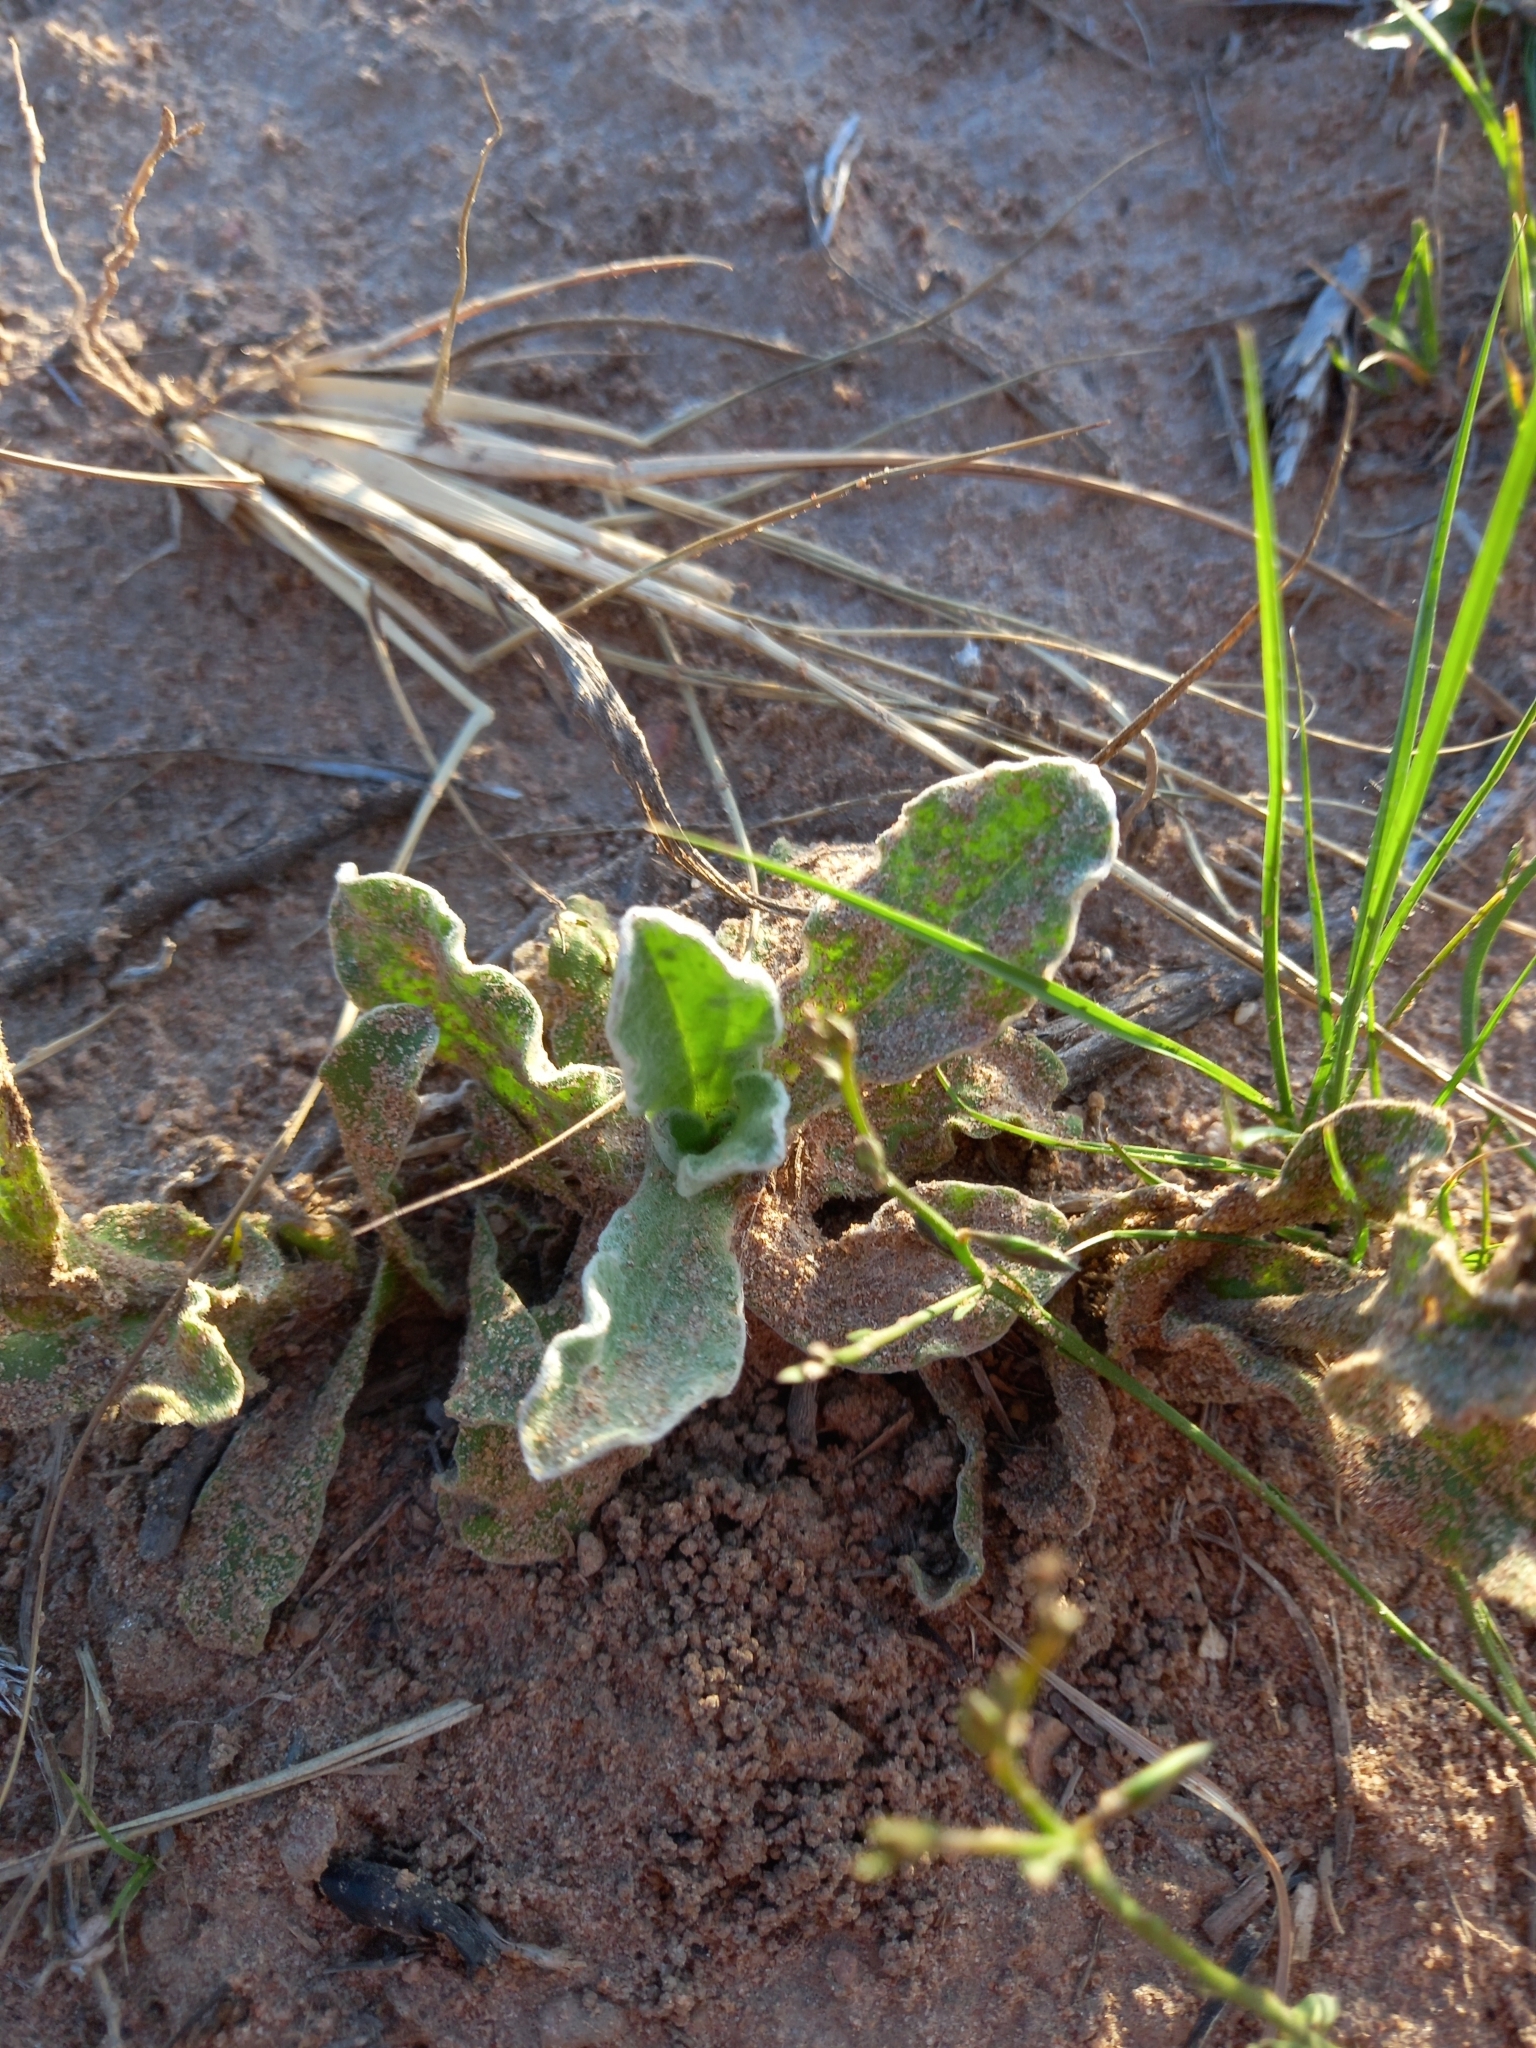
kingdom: Plantae
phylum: Tracheophyta
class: Magnoliopsida
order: Asterales
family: Asteraceae
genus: Helichrysum
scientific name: Helichrysum aureum
